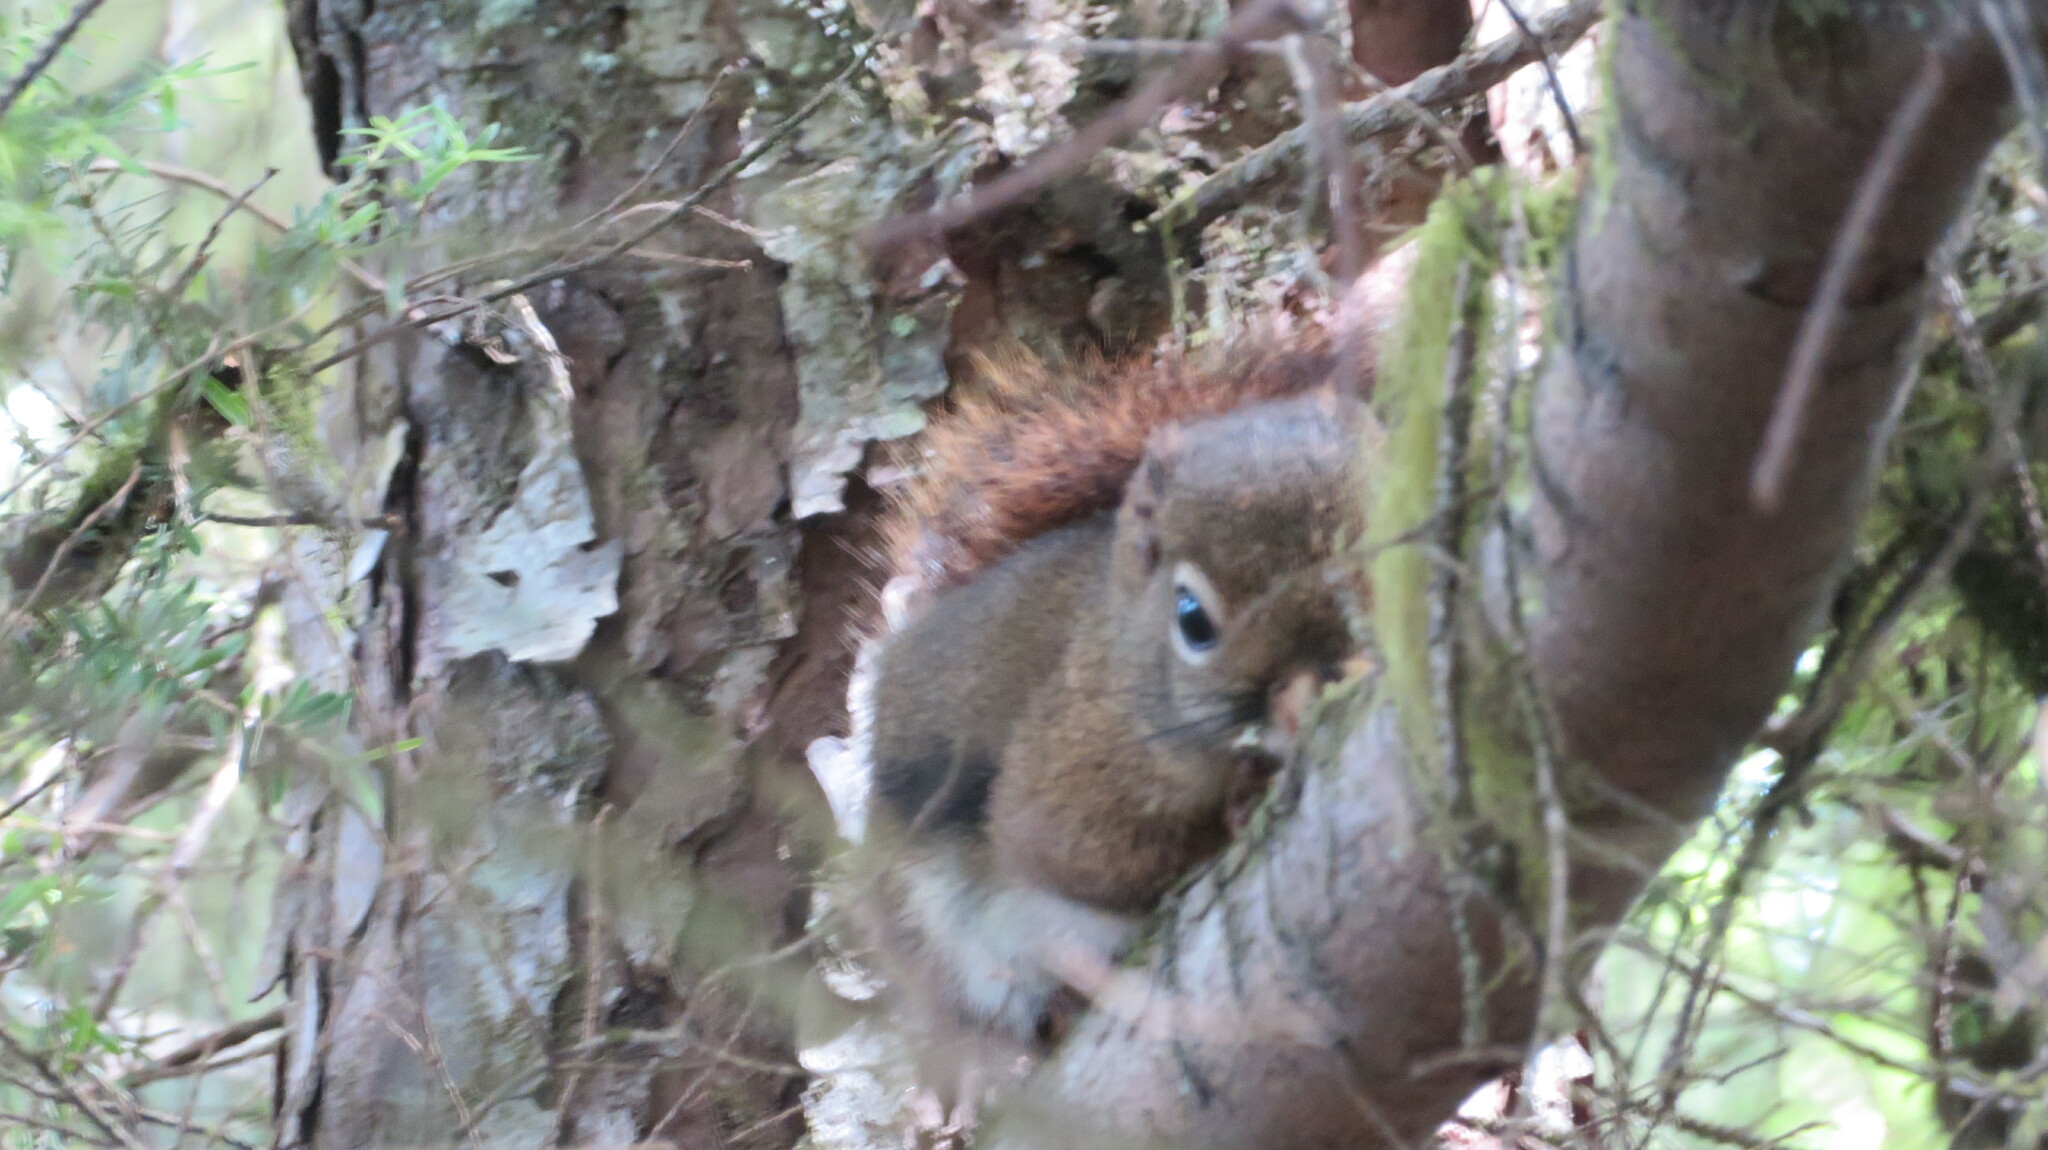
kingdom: Animalia
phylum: Chordata
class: Mammalia
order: Rodentia
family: Sciuridae
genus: Tamiasciurus
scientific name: Tamiasciurus hudsonicus
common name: Red squirrel
